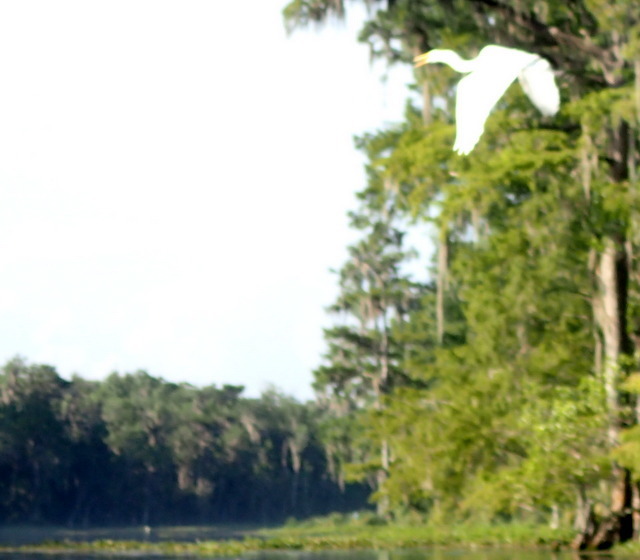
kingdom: Animalia
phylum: Chordata
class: Aves
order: Pelecaniformes
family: Ardeidae
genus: Ardea
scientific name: Ardea alba
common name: Great egret
